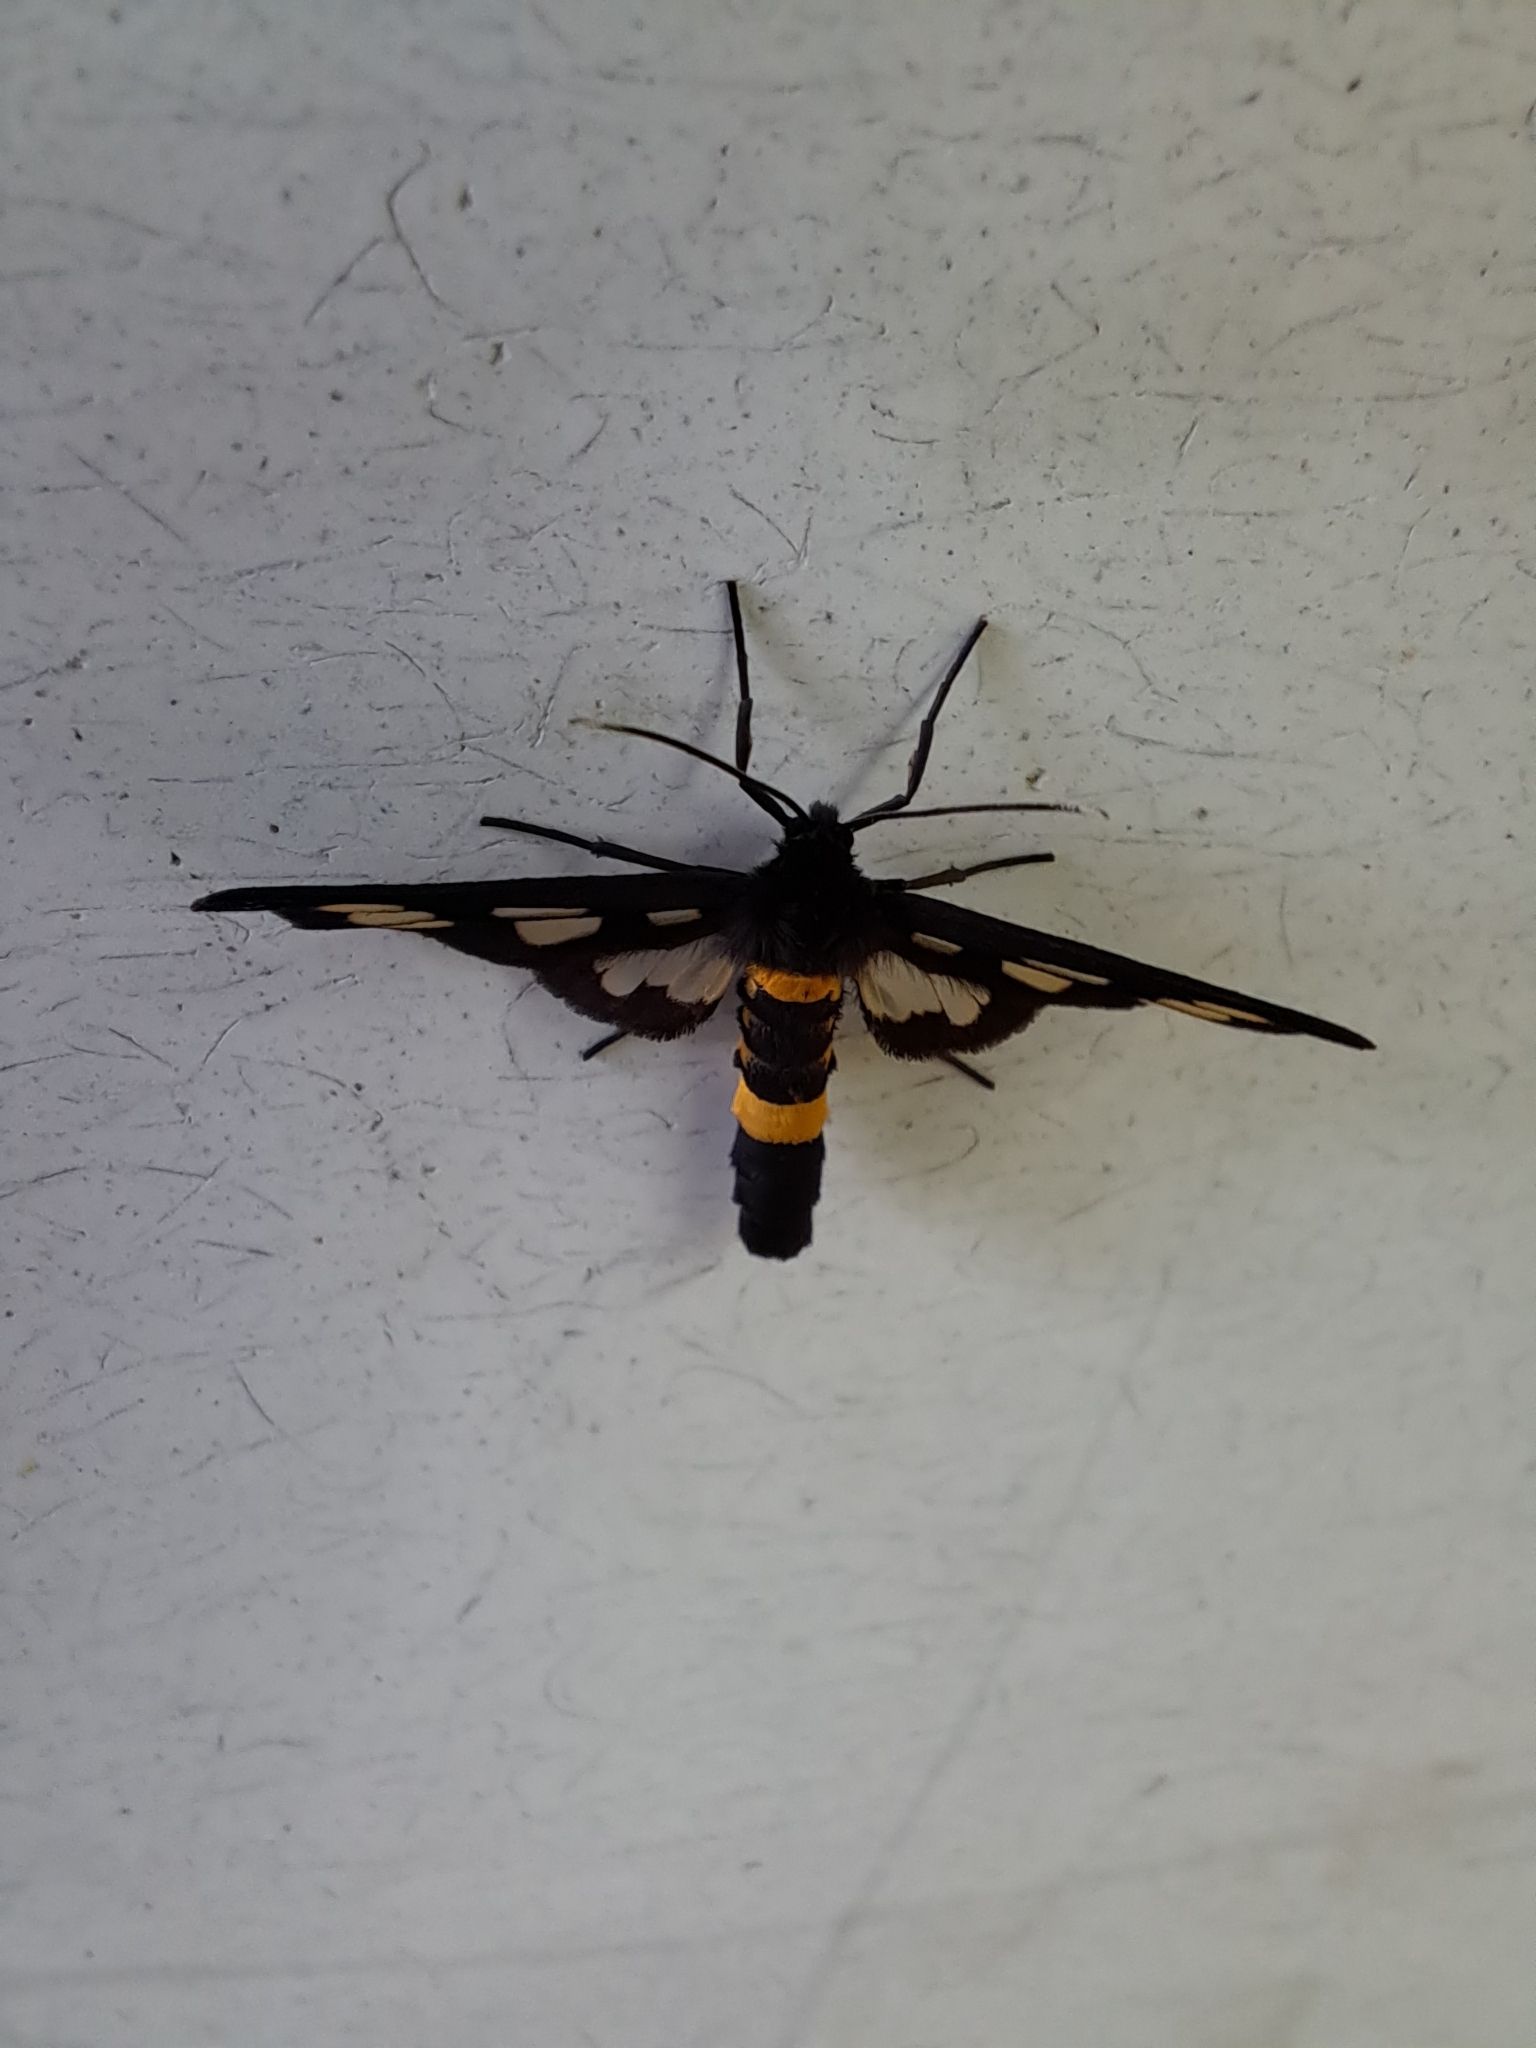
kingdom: Animalia
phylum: Arthropoda
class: Insecta
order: Lepidoptera
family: Erebidae
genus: Amata
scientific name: Amata fortunei
